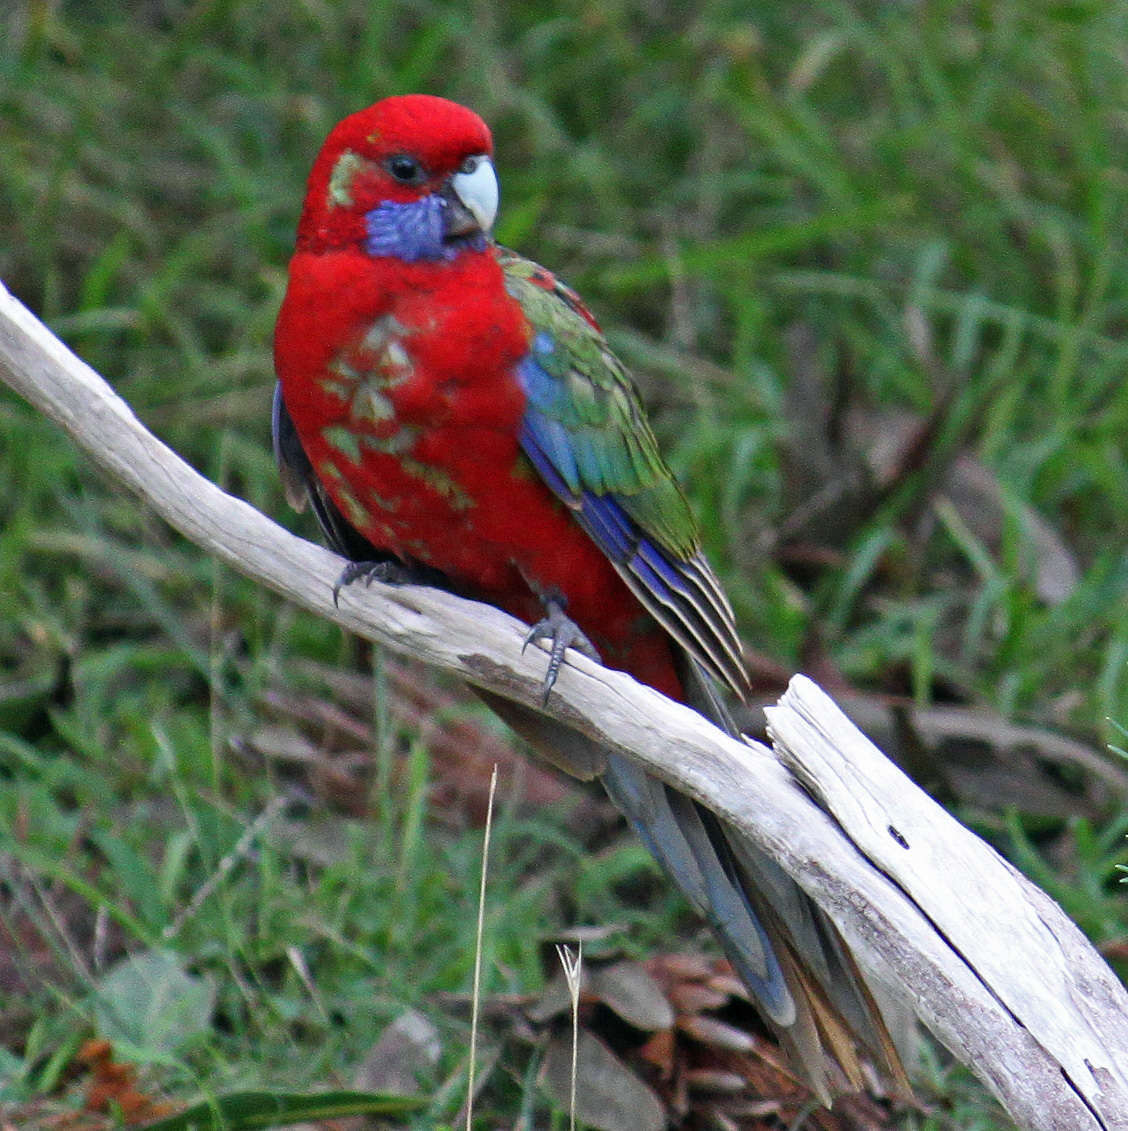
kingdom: Animalia
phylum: Chordata
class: Aves
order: Psittaciformes
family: Psittacidae
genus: Platycercus
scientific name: Platycercus elegans
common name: Crimson rosella
